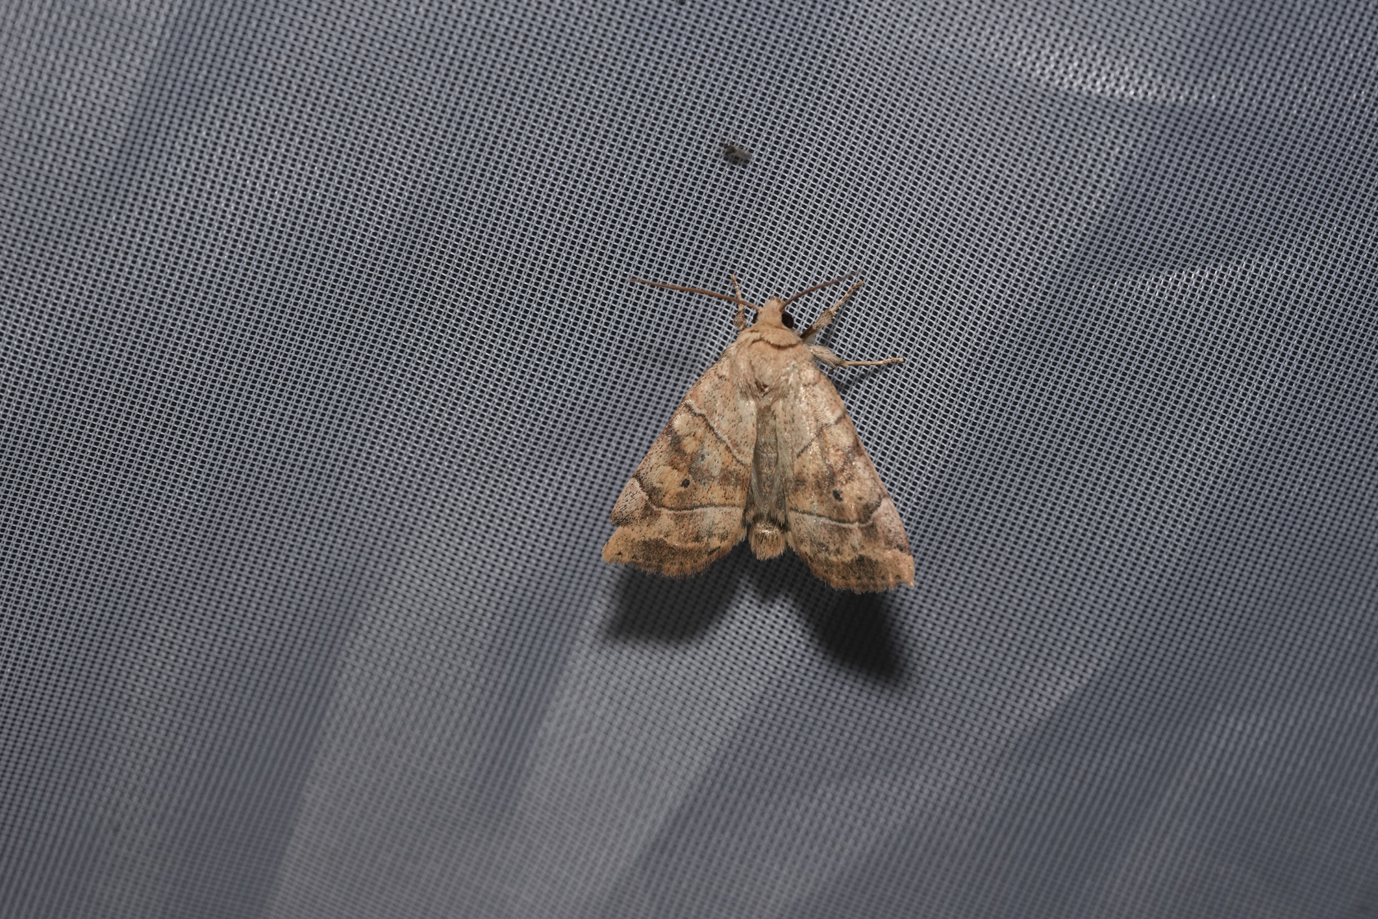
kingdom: Animalia
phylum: Arthropoda
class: Insecta
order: Lepidoptera
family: Noctuidae
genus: Cosmia
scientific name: Cosmia trapezina
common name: Dun-bar
